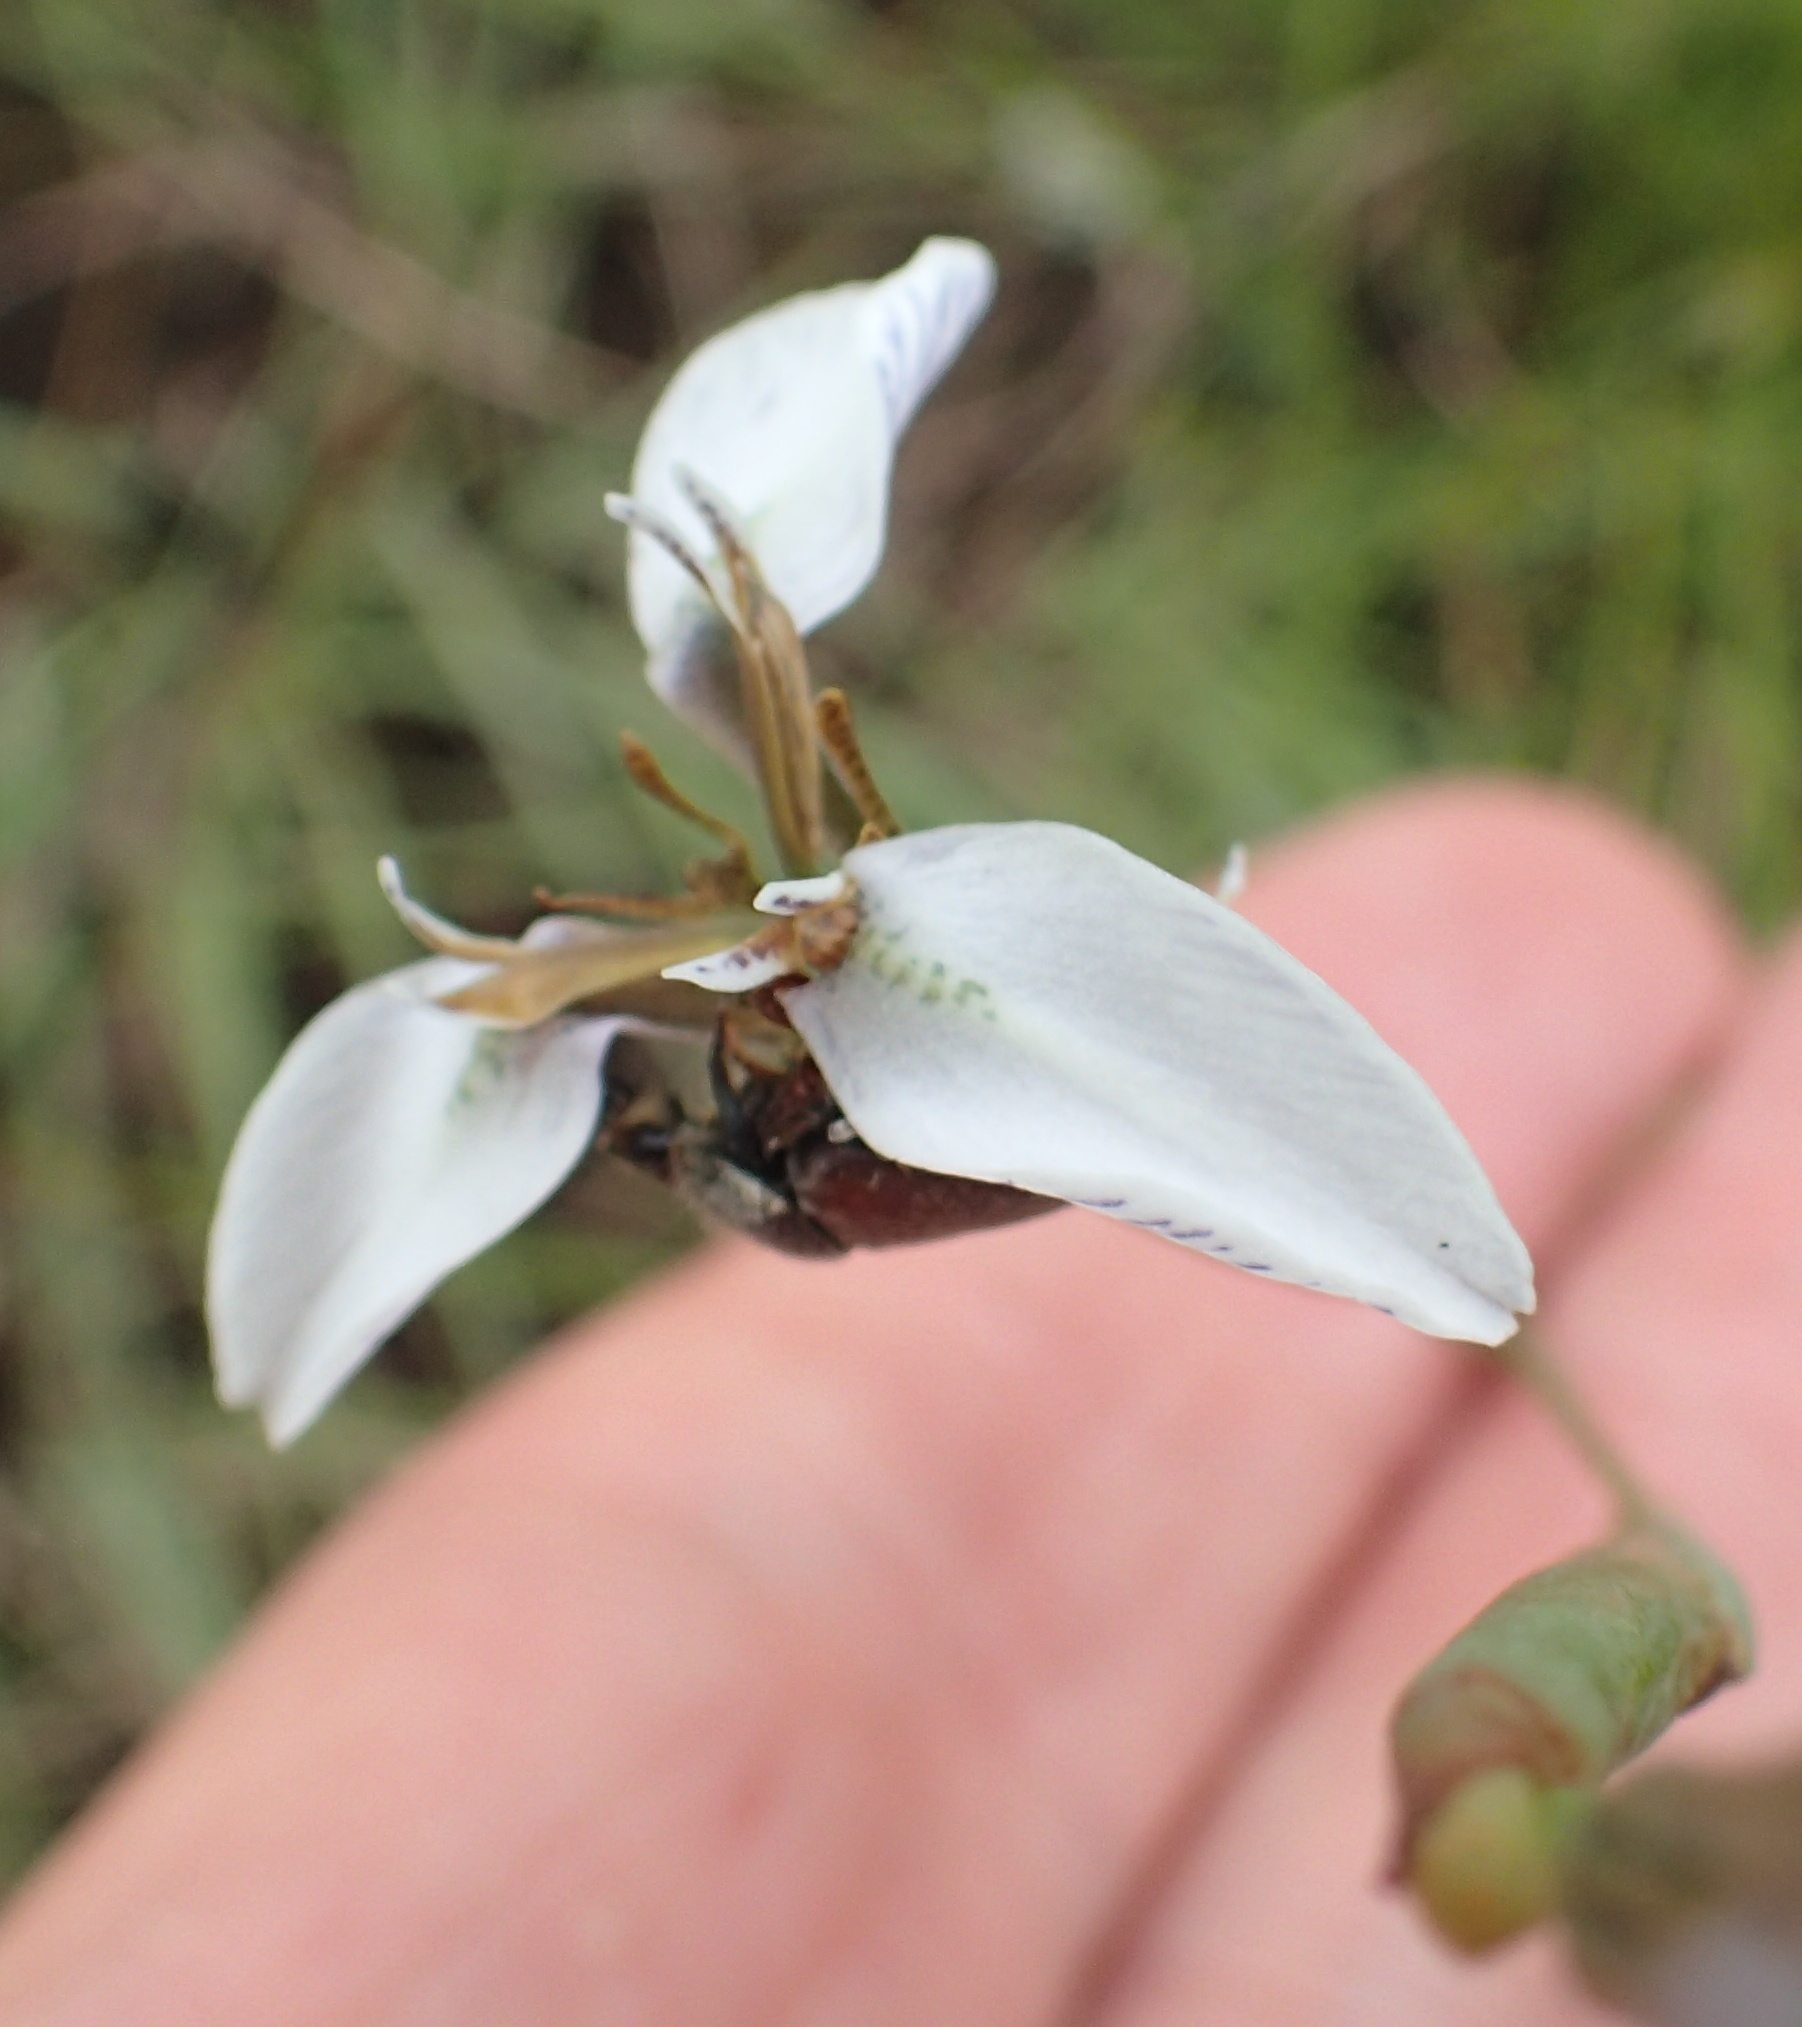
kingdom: Plantae
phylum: Tracheophyta
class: Liliopsida
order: Asparagales
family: Iridaceae
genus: Moraea
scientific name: Moraea brevistyla
